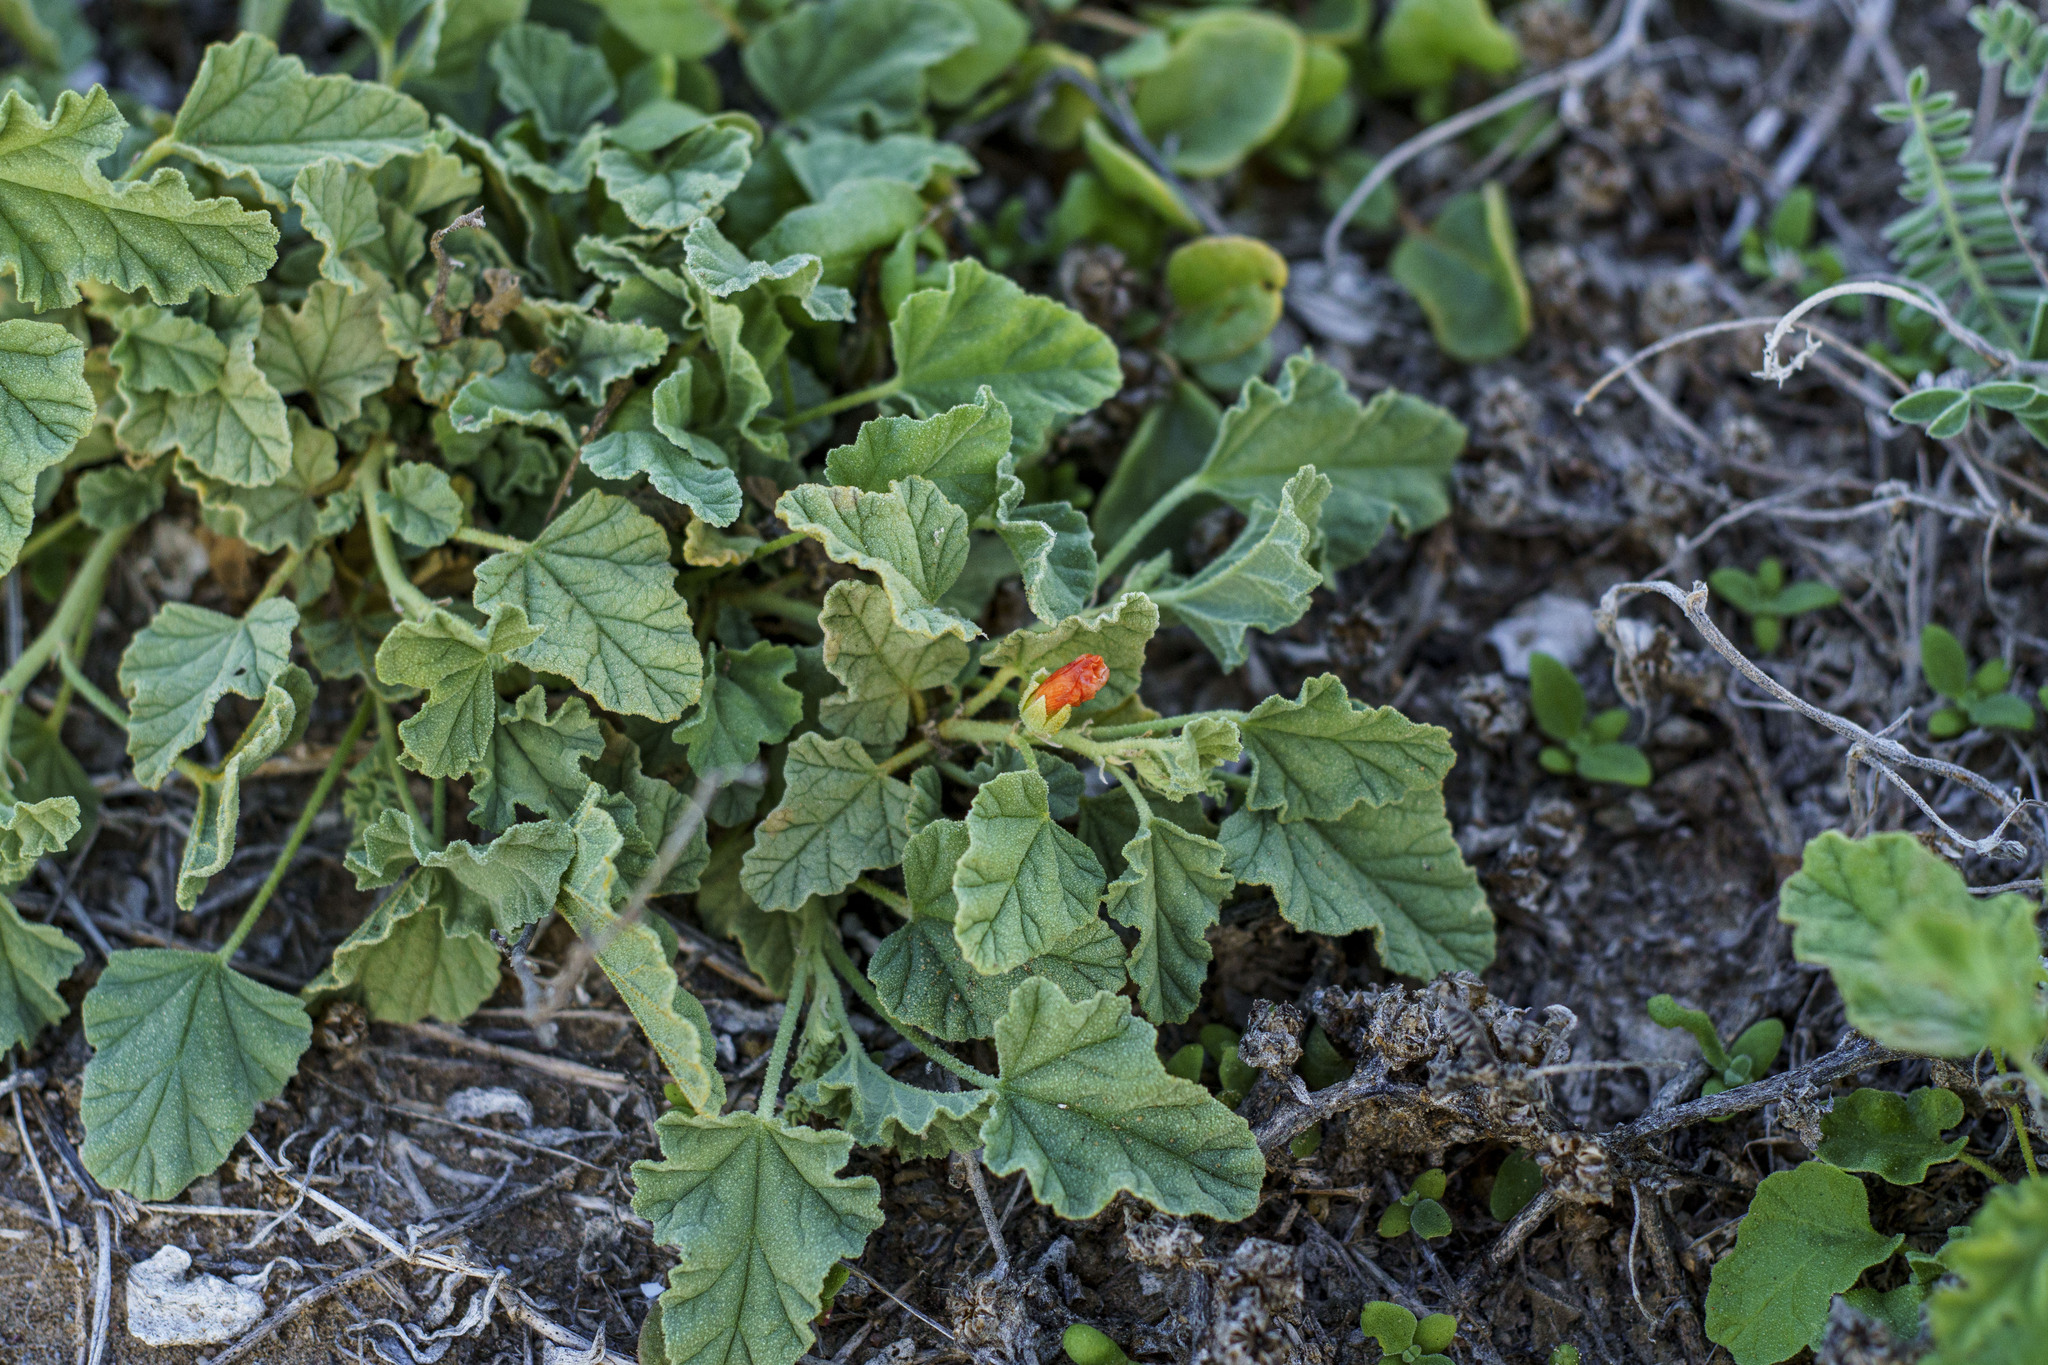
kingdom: Plantae
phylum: Tracheophyta
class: Magnoliopsida
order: Malvales
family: Malvaceae
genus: Sphaeralcea
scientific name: Sphaeralcea ambigua
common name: Apricot globe-mallow
